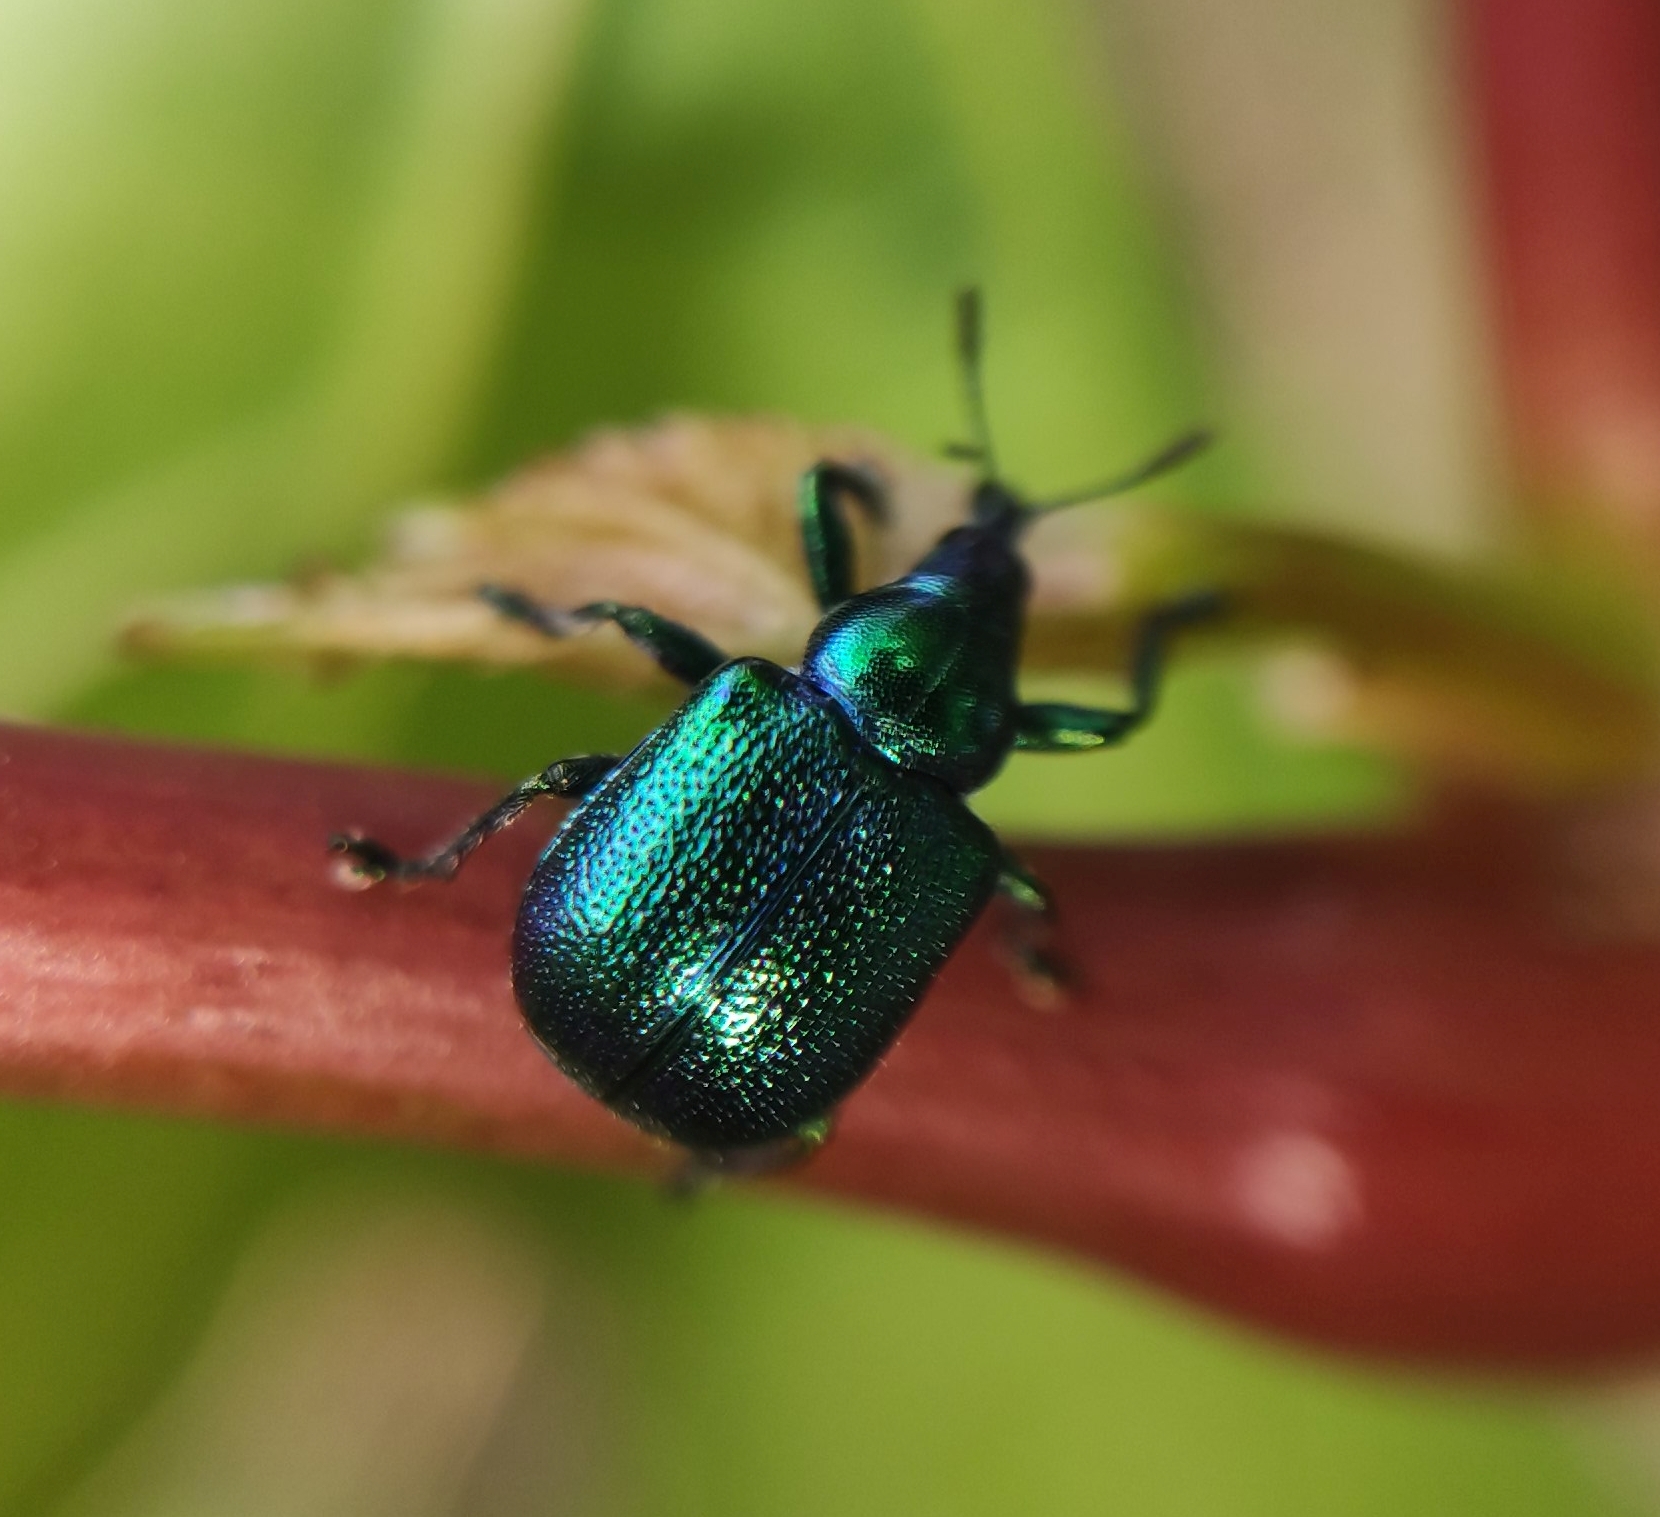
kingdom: Animalia
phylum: Arthropoda
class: Insecta
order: Coleoptera
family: Attelabidae
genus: Byctiscus
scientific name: Byctiscus betulae
